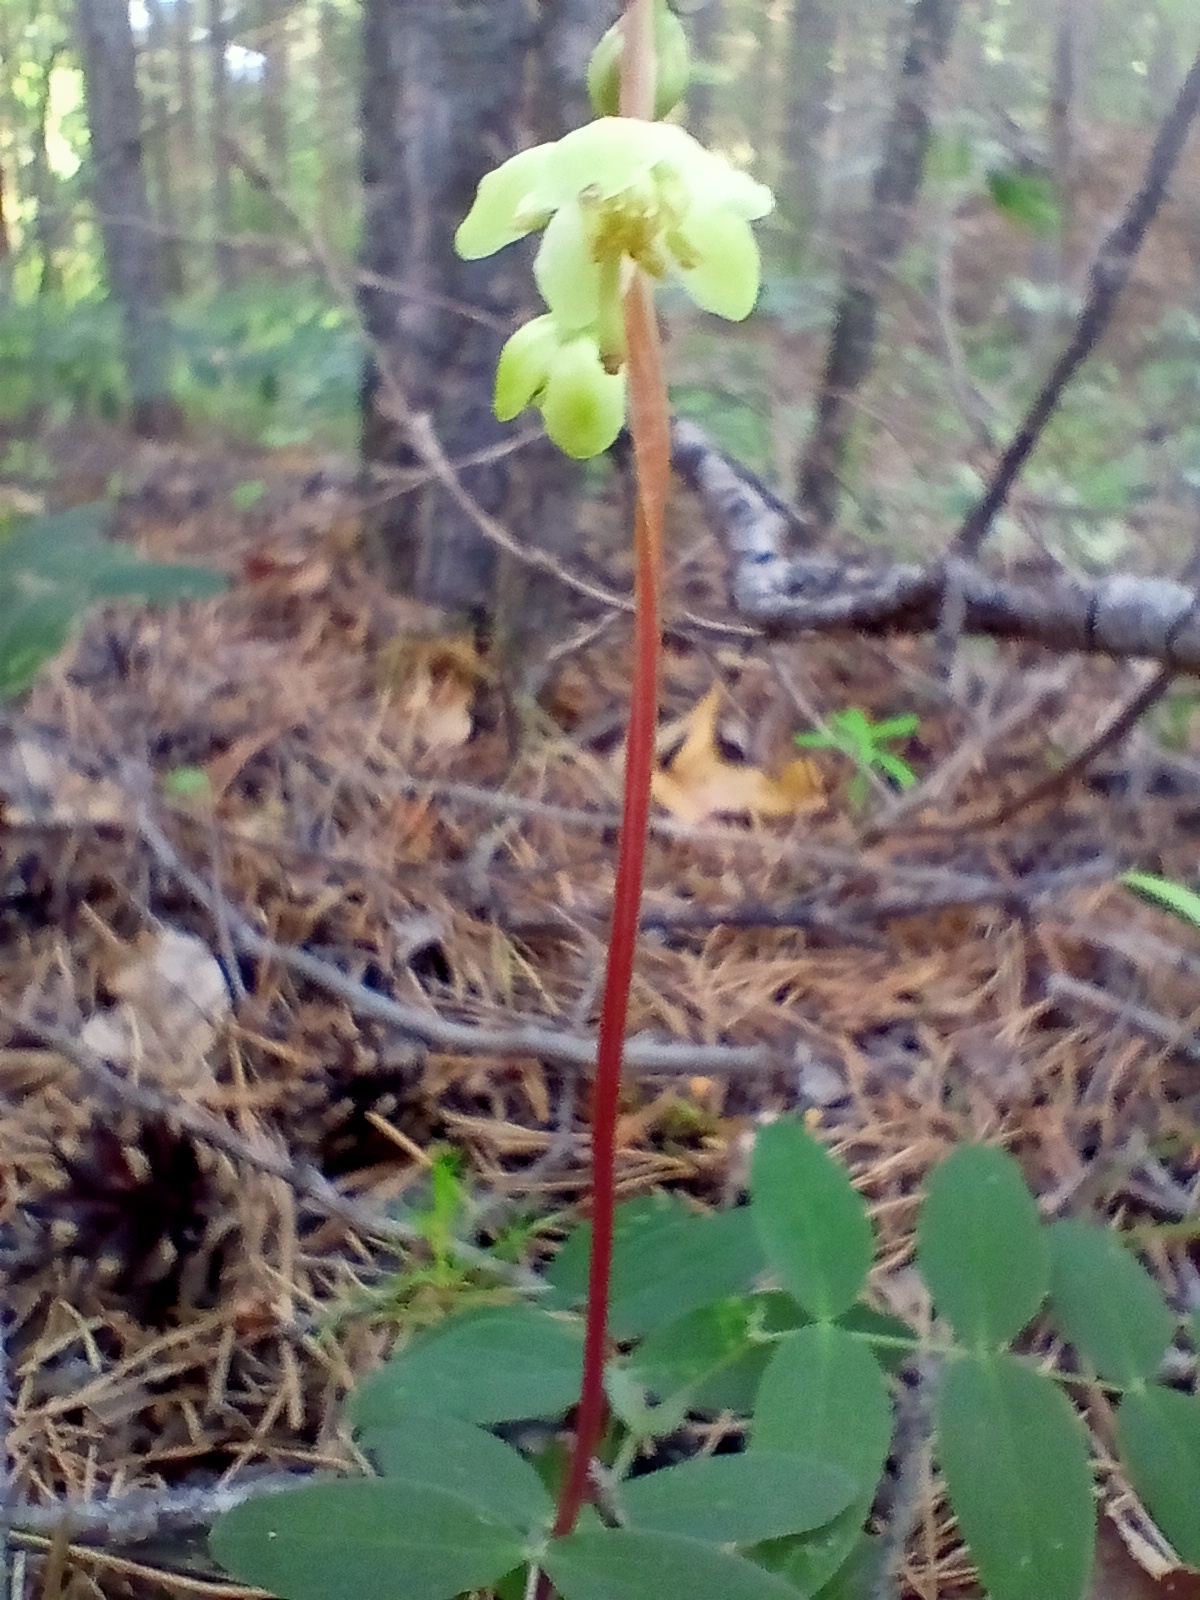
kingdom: Plantae
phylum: Tracheophyta
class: Magnoliopsida
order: Ericales
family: Ericaceae
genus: Pyrola
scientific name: Pyrola chlorantha
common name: Green wintergreen
